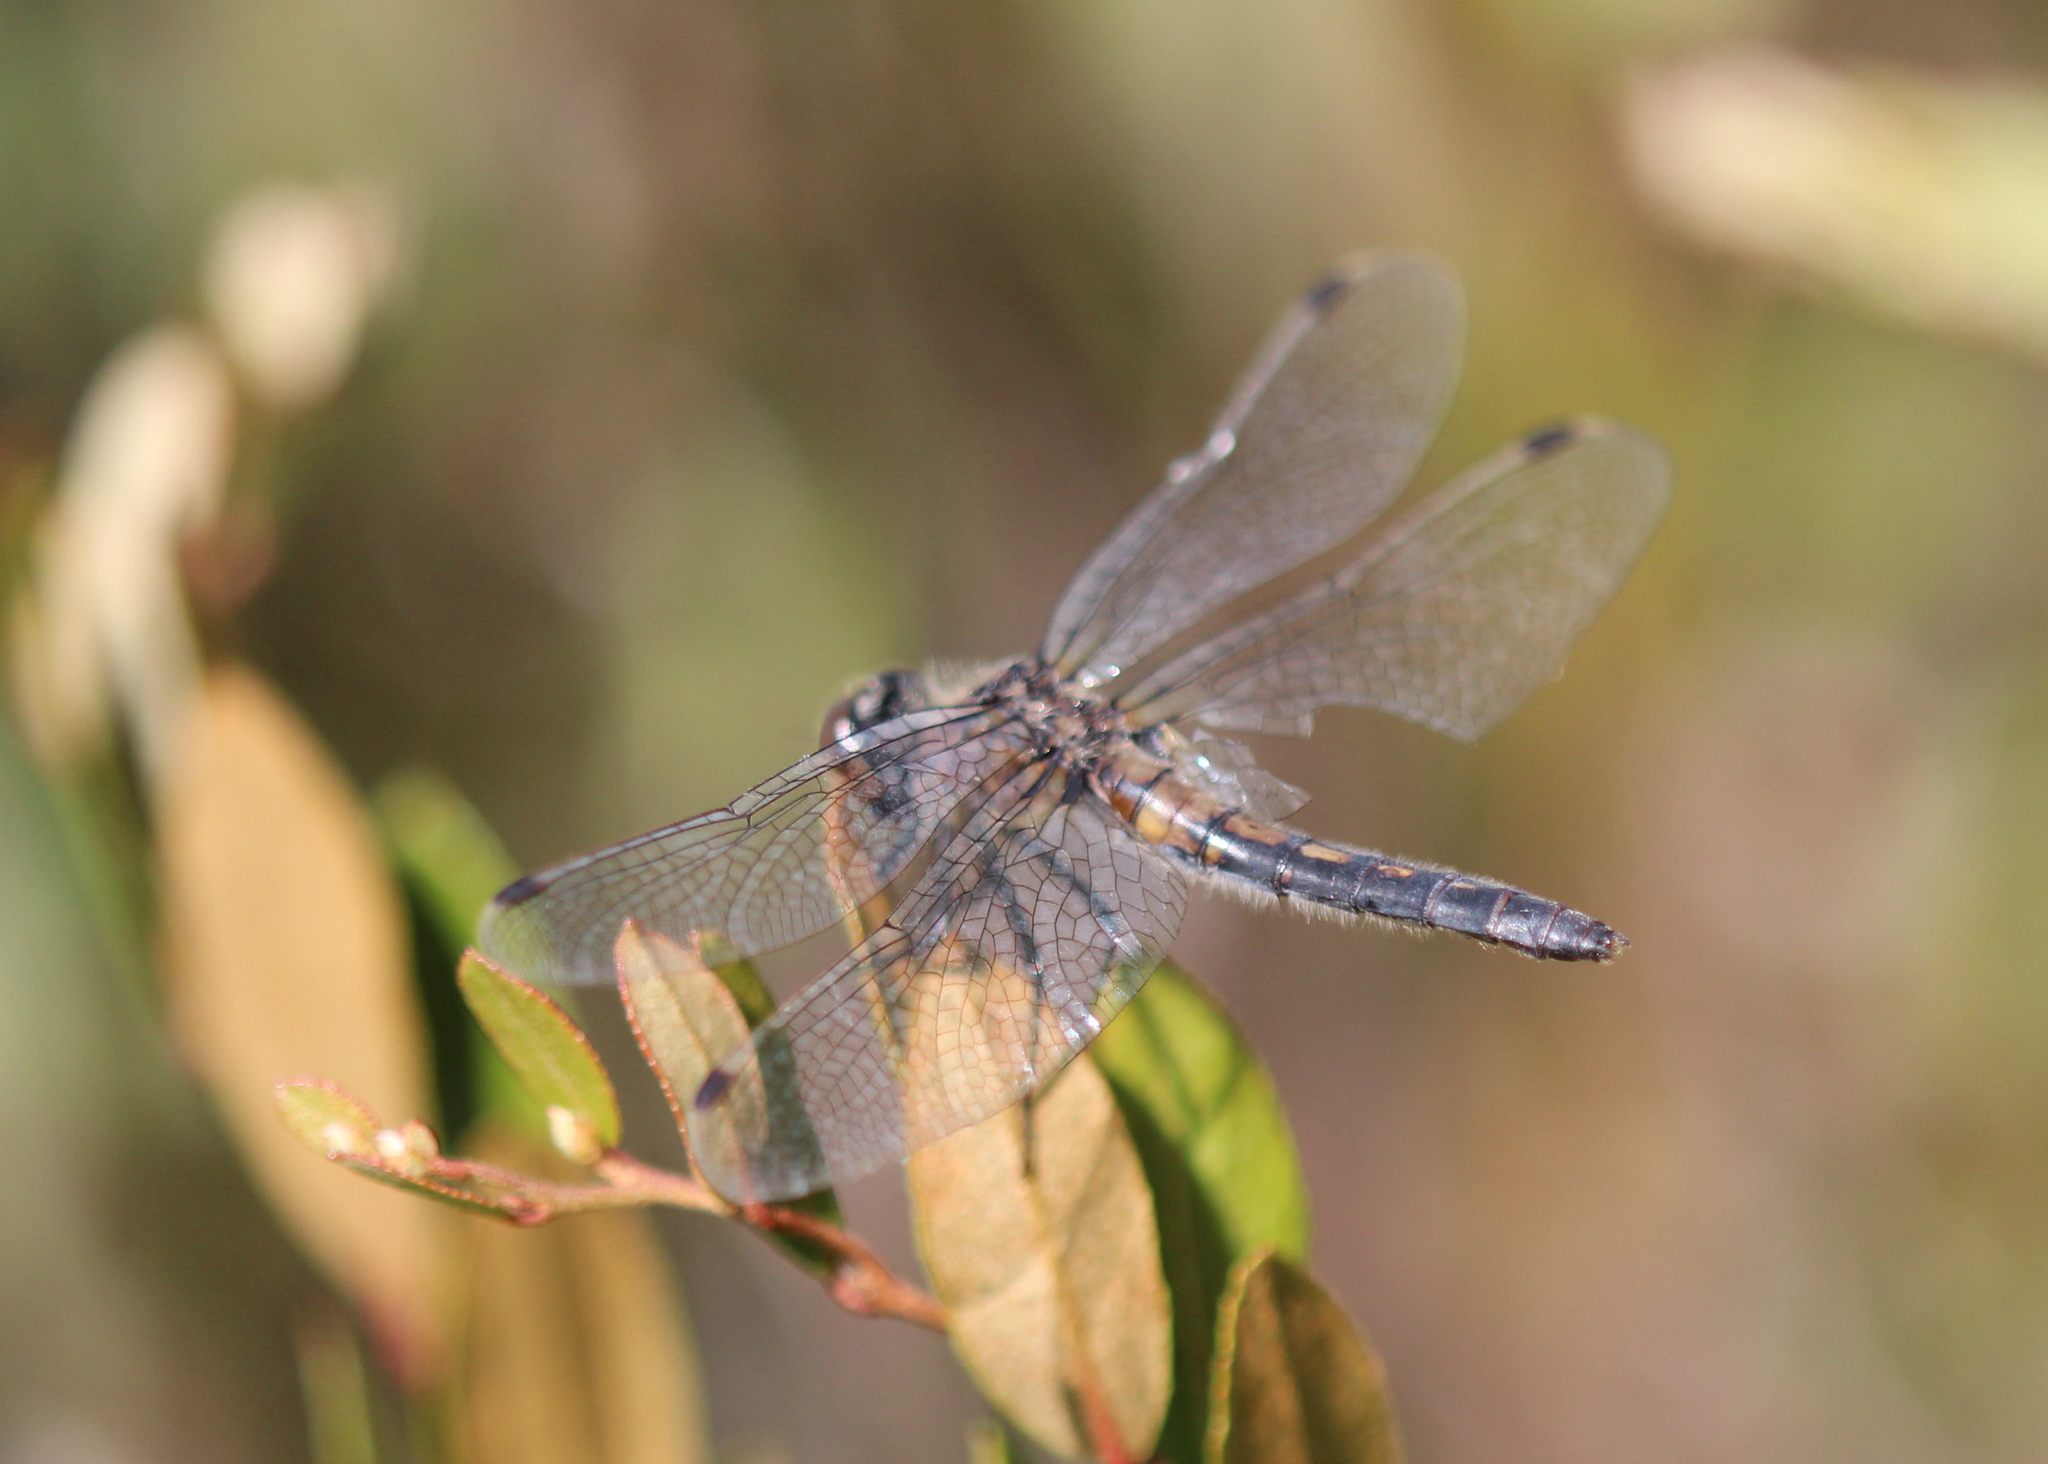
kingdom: Animalia
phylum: Arthropoda
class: Insecta
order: Odonata
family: Libellulidae
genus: Leucorrhinia
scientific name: Leucorrhinia frigida
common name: Frosted whiteface
